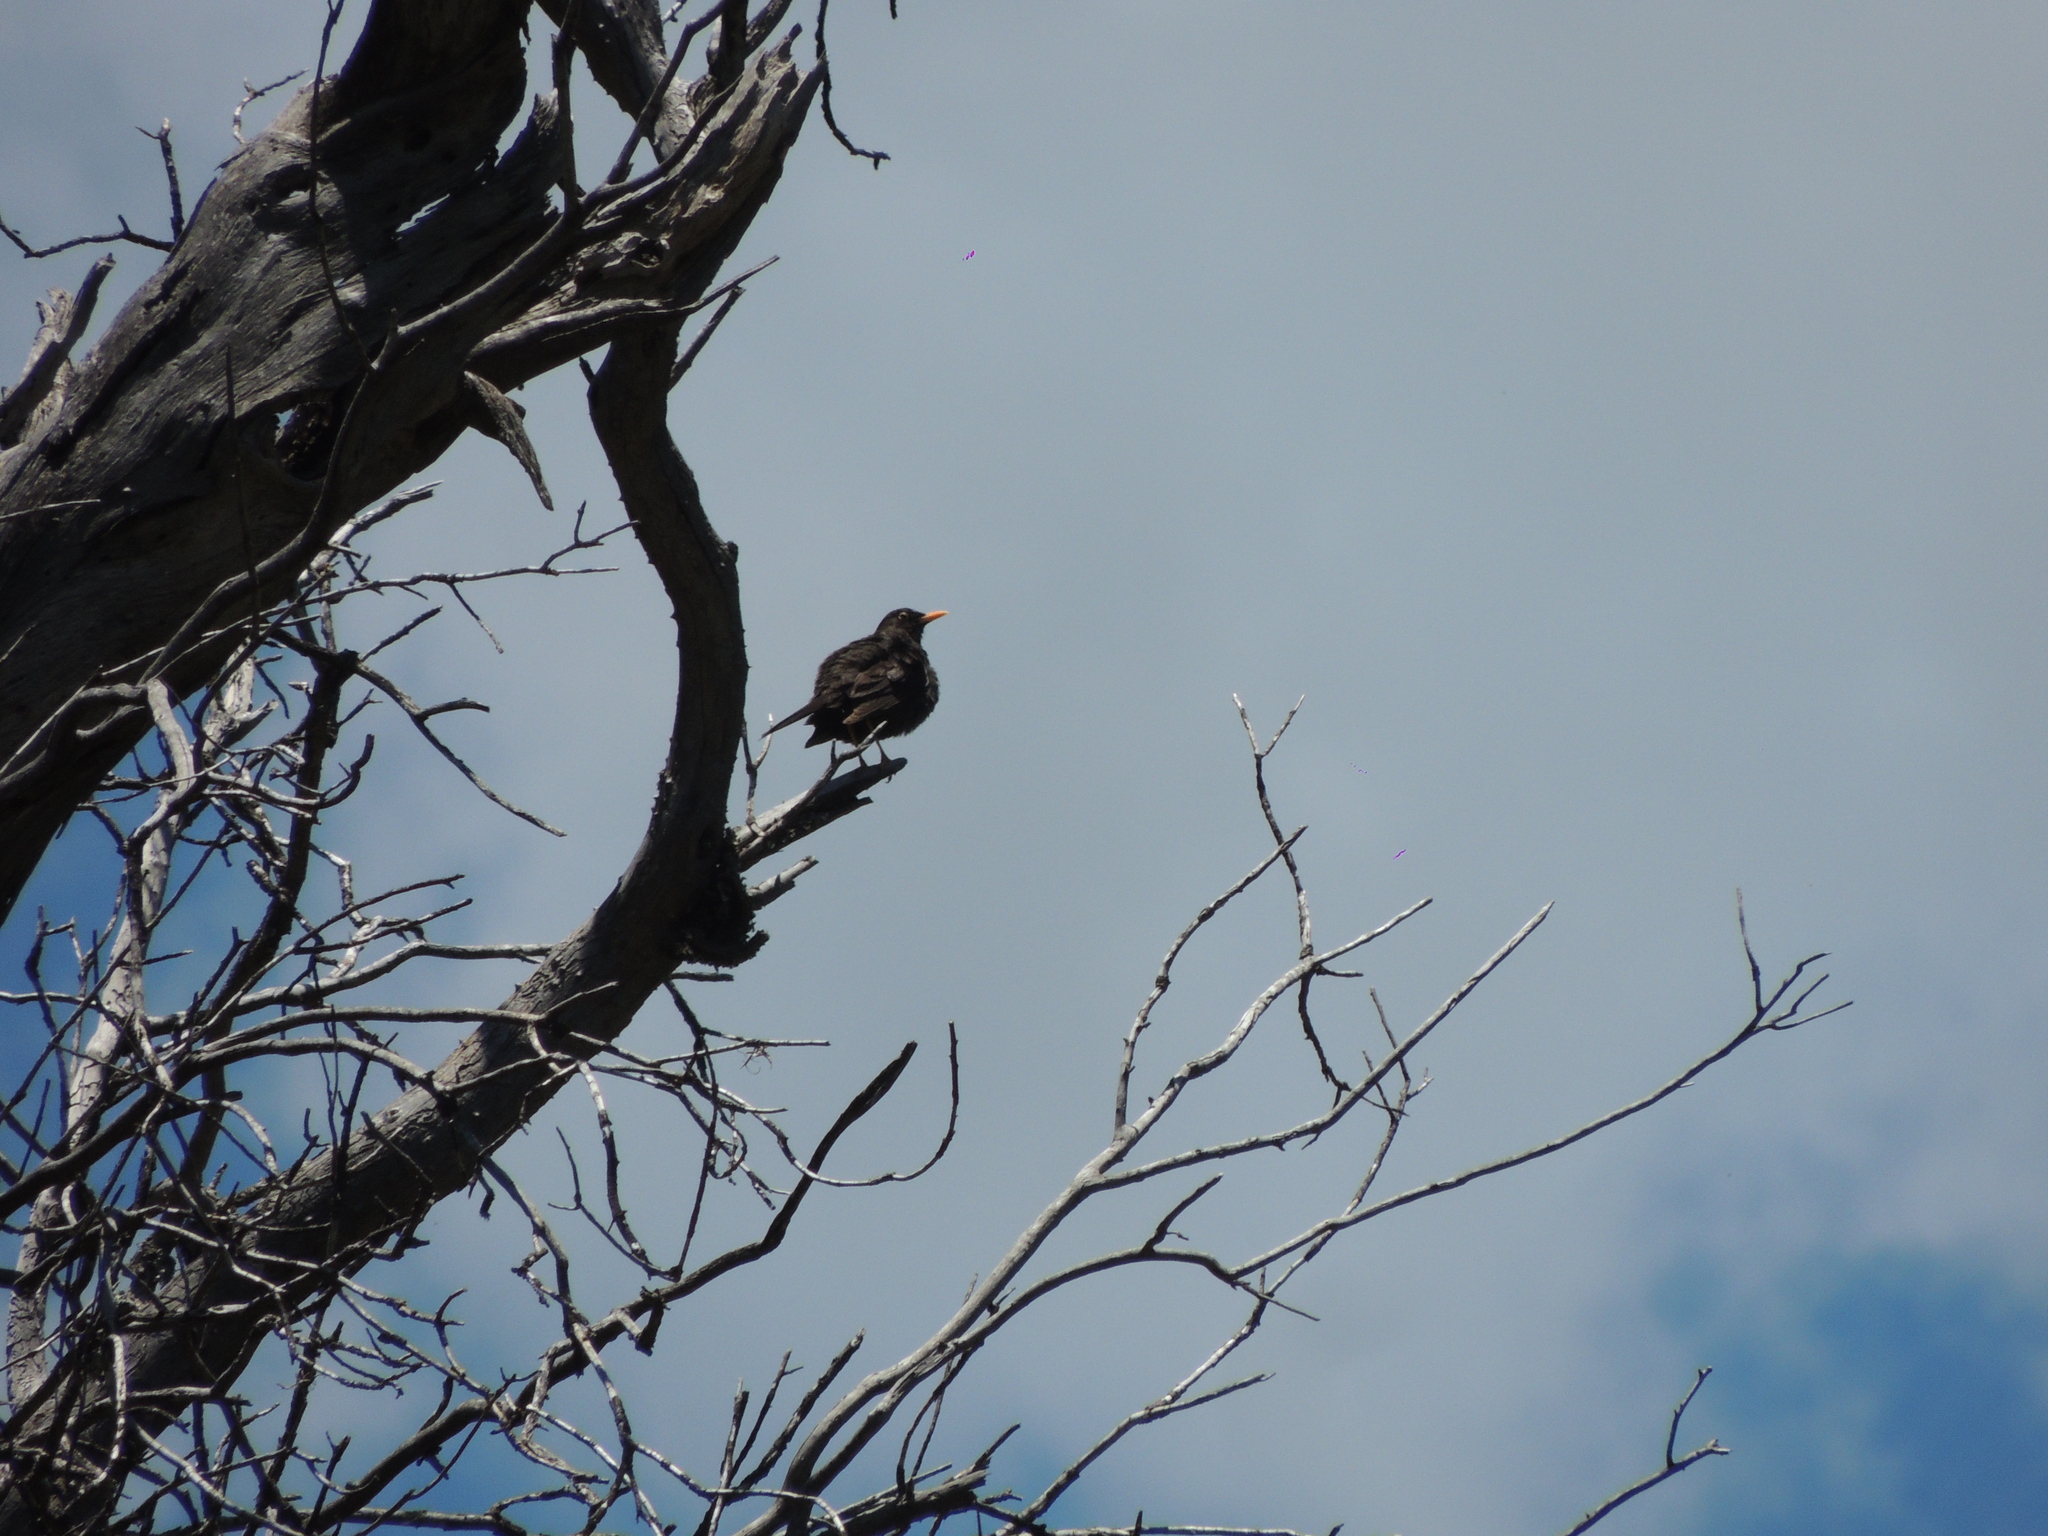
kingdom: Animalia
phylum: Chordata
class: Aves
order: Passeriformes
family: Turdidae
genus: Turdus
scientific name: Turdus chiguanco
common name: Chiguanco thrush
